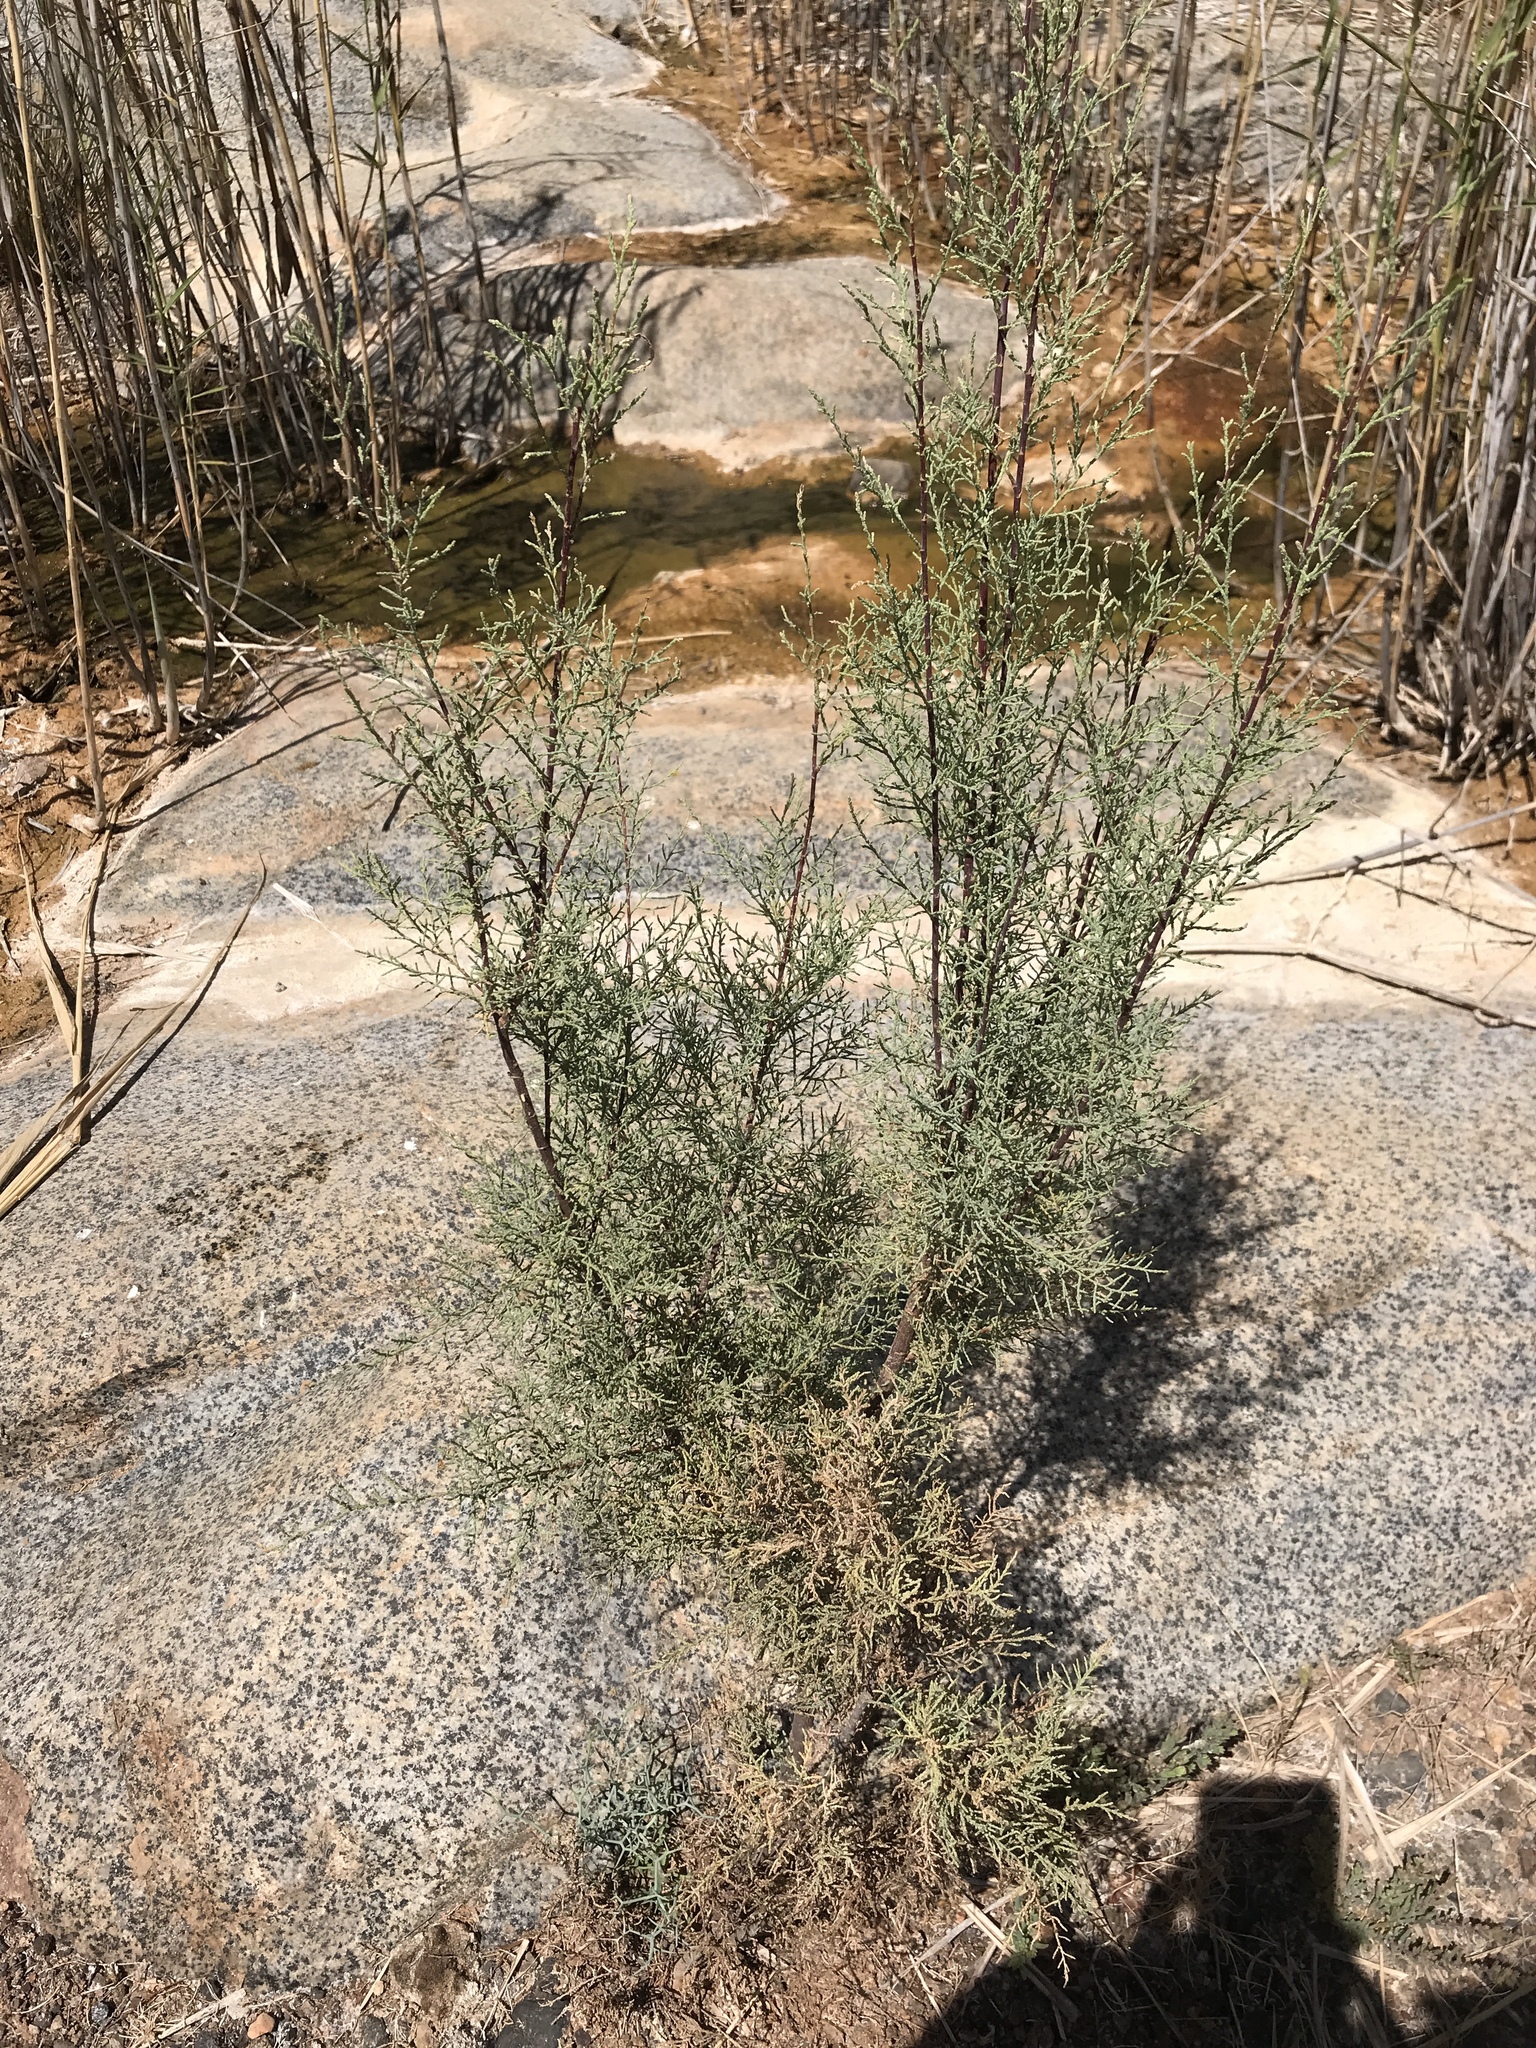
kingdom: Plantae
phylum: Tracheophyta
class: Magnoliopsida
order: Caryophyllales
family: Tamaricaceae
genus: Tamarix
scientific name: Tamarix canariensis
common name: Canary island tamarisk
